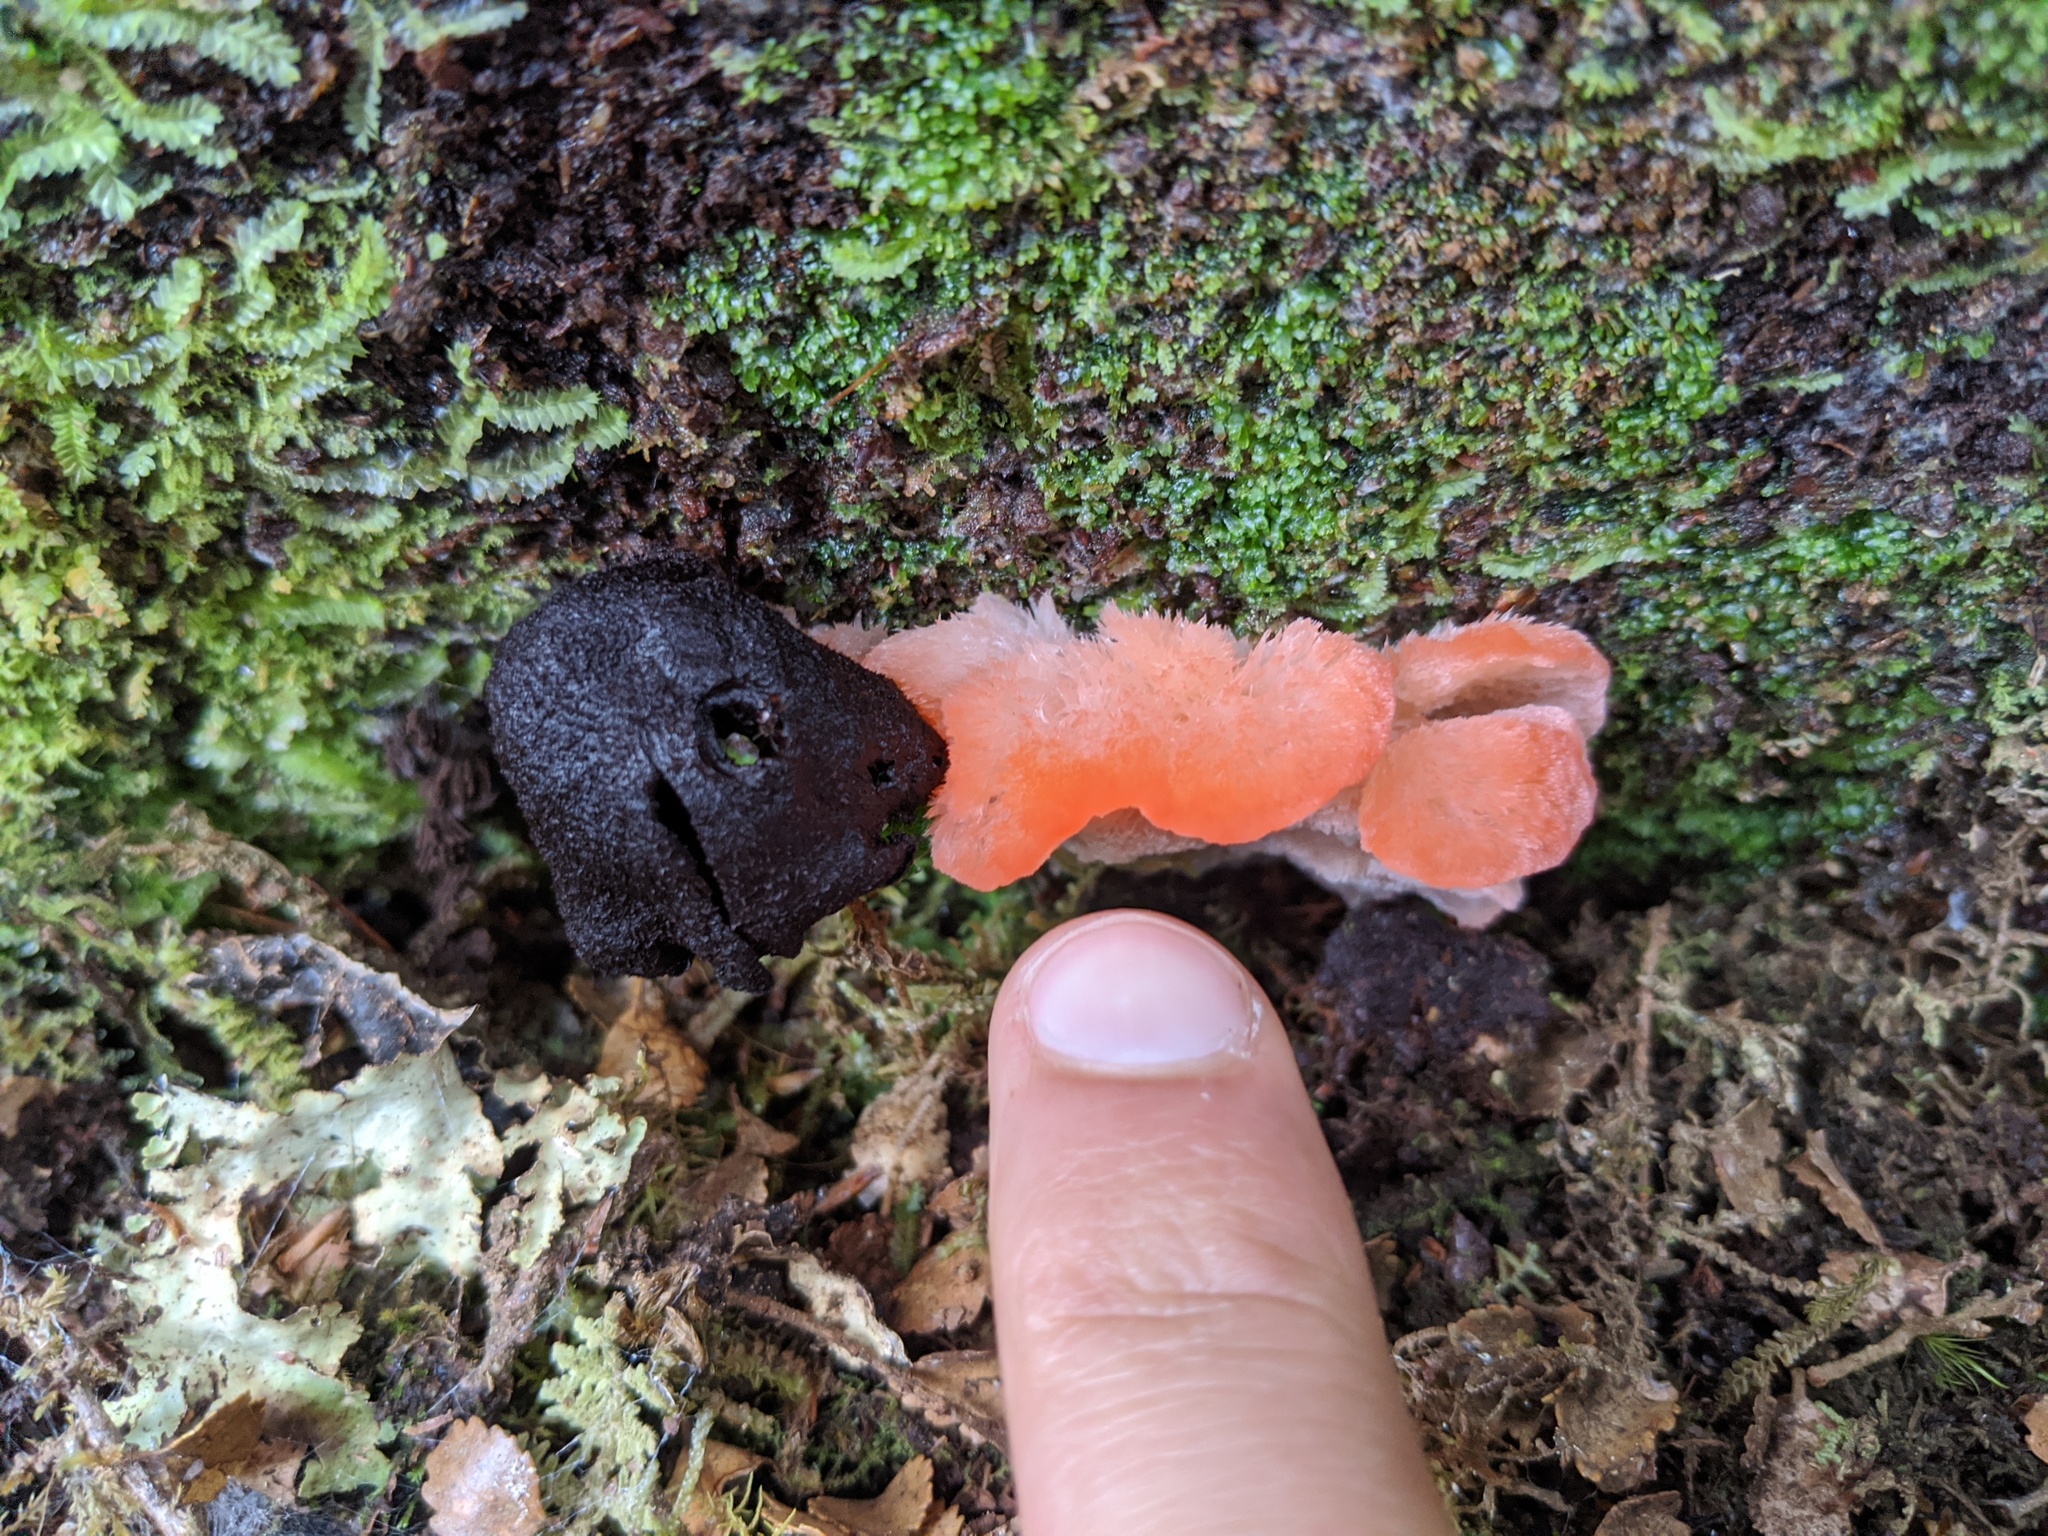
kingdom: Fungi
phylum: Basidiomycota
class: Agaricomycetes
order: Polyporales
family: Incrustoporiaceae
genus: Tyromyces
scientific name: Tyromyces pulcherrimus
